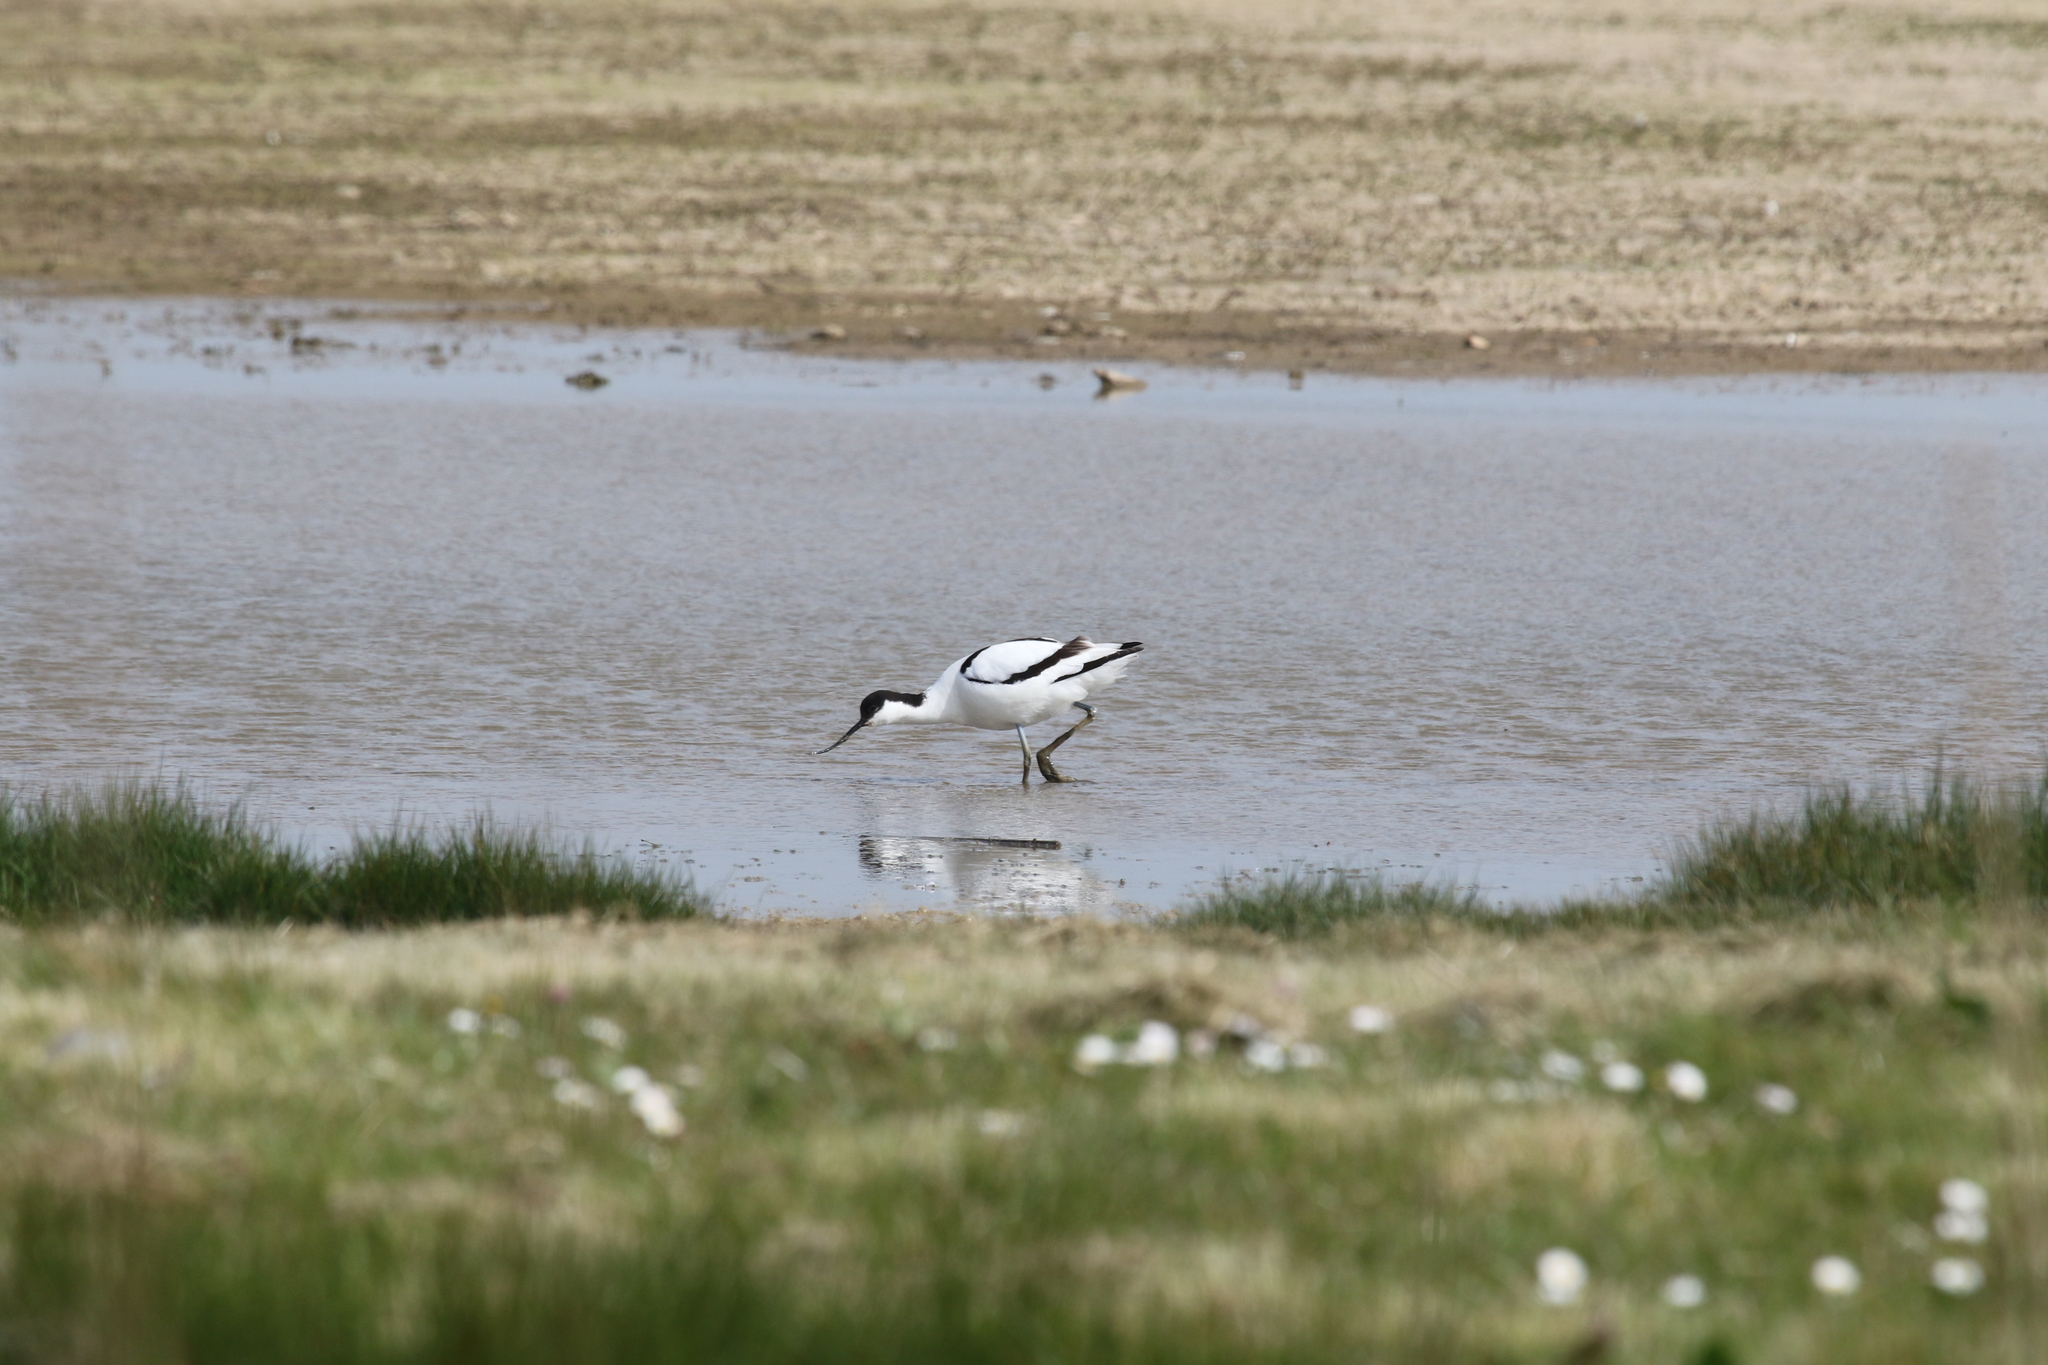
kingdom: Animalia
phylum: Chordata
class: Aves
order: Charadriiformes
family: Recurvirostridae
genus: Recurvirostra
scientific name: Recurvirostra avosetta
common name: Pied avocet
